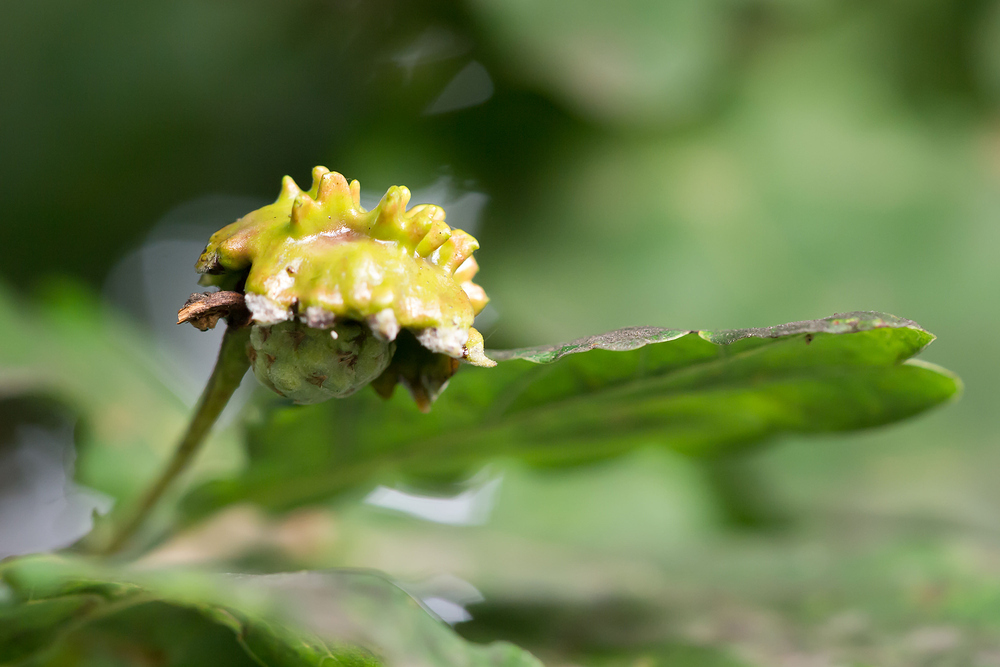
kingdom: Animalia
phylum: Arthropoda
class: Insecta
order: Hymenoptera
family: Cynipidae
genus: Andricus
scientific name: Andricus quercuscalicis
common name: Knopper gall
